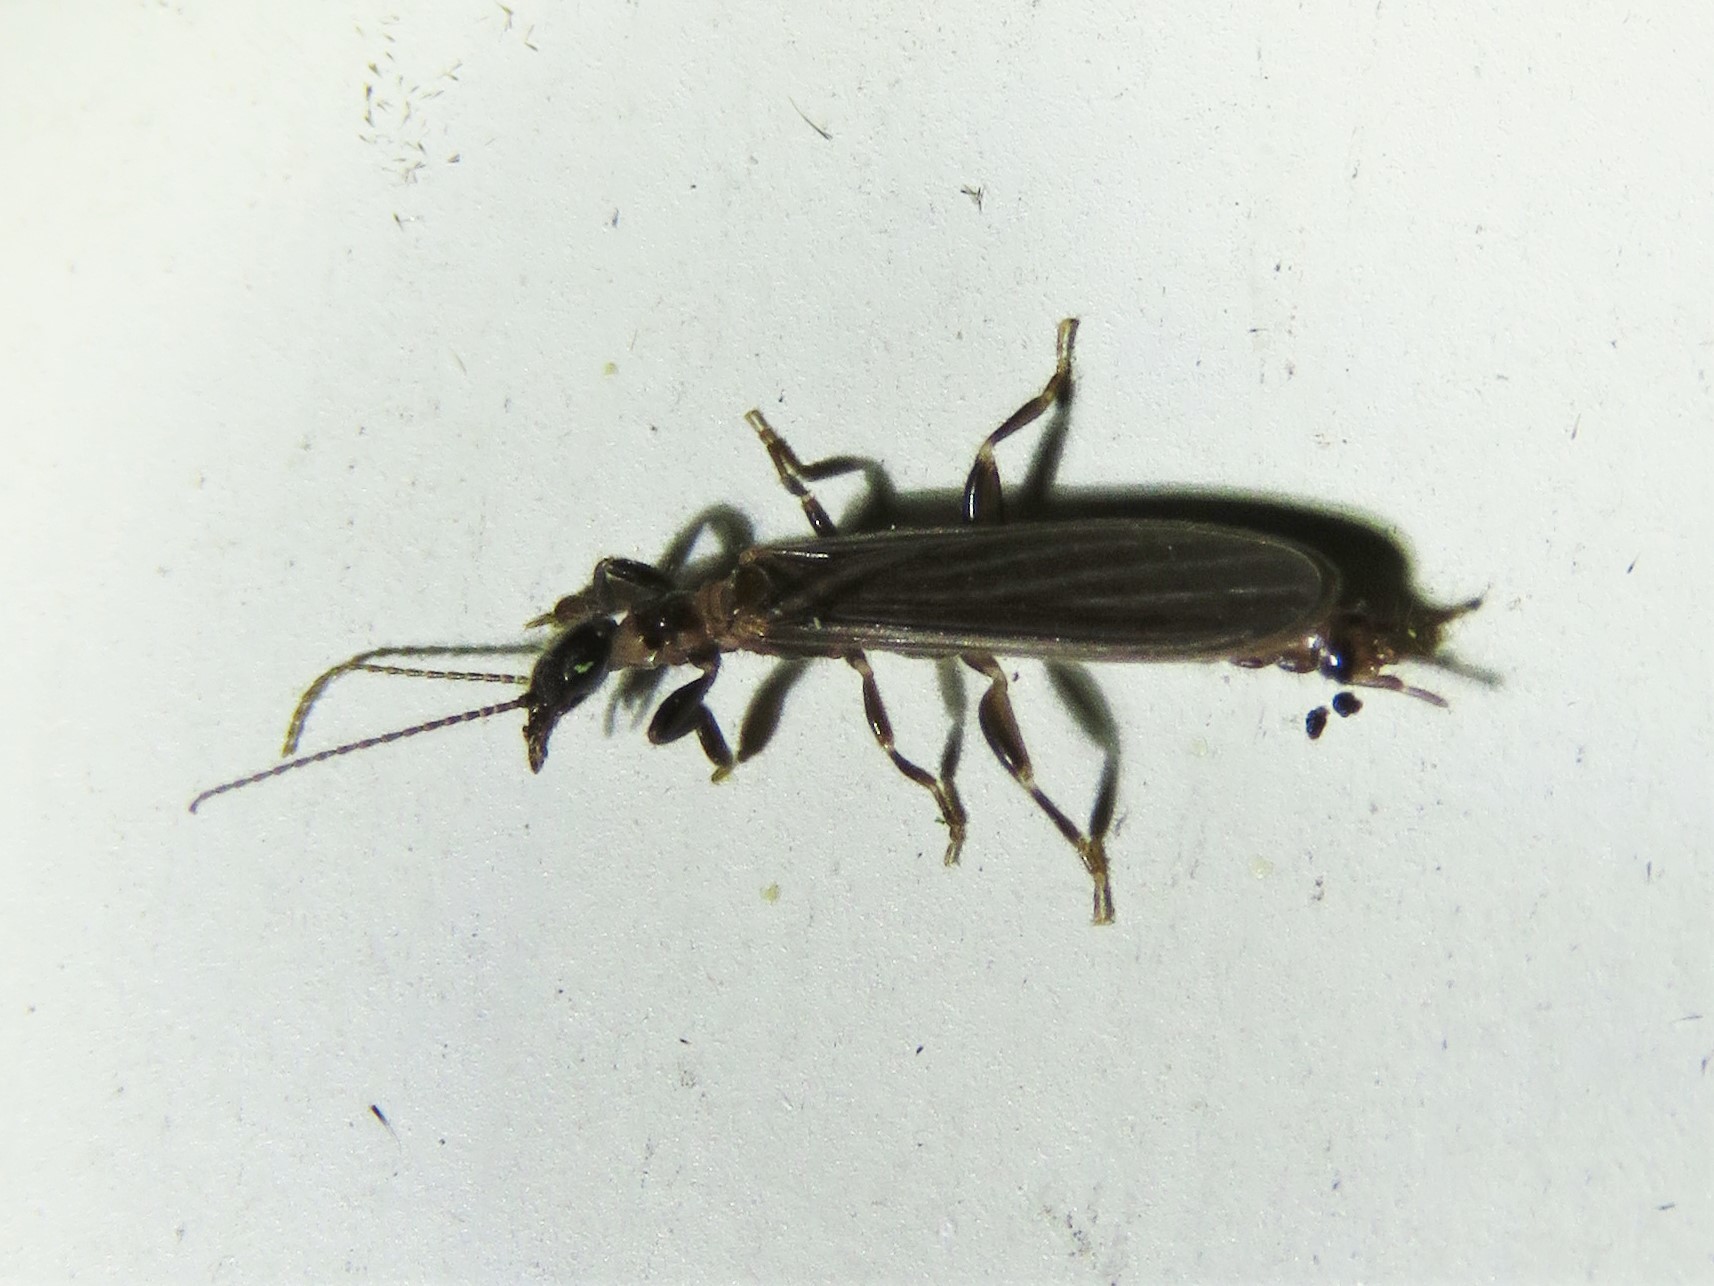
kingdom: Animalia
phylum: Arthropoda
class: Insecta
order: Embioptera
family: Oligotomidae
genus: Oligotoma
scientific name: Oligotoma nigra
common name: Black webspinner
